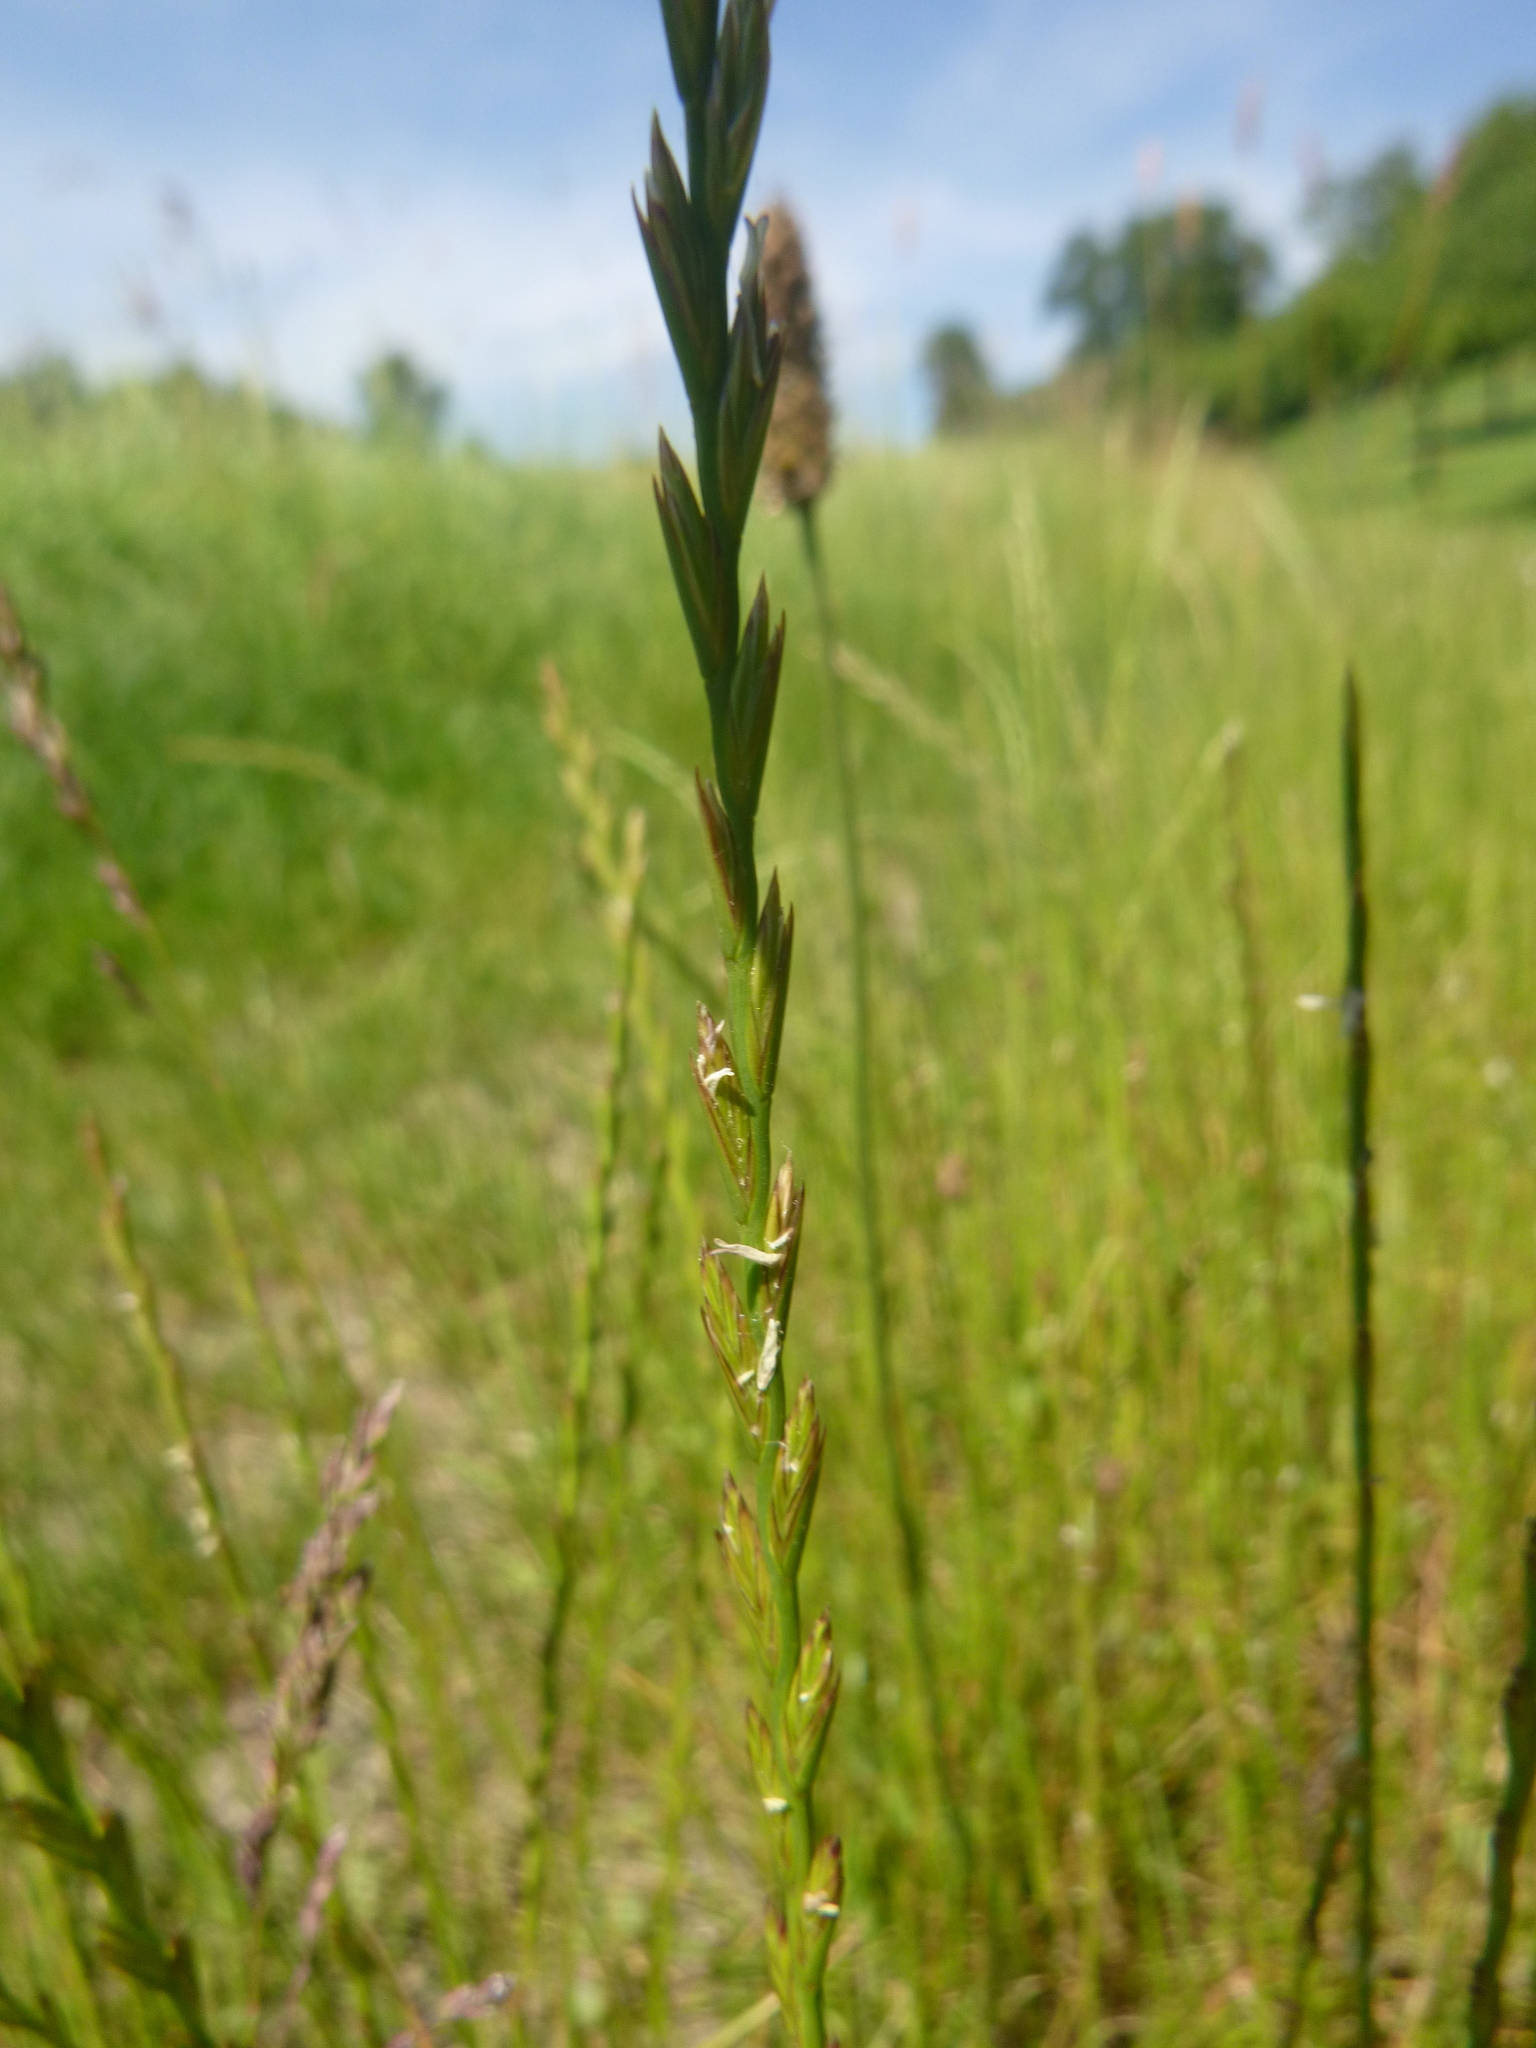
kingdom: Plantae
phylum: Tracheophyta
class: Liliopsida
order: Poales
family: Poaceae
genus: Lolium
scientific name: Lolium perenne
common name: Perennial ryegrass
